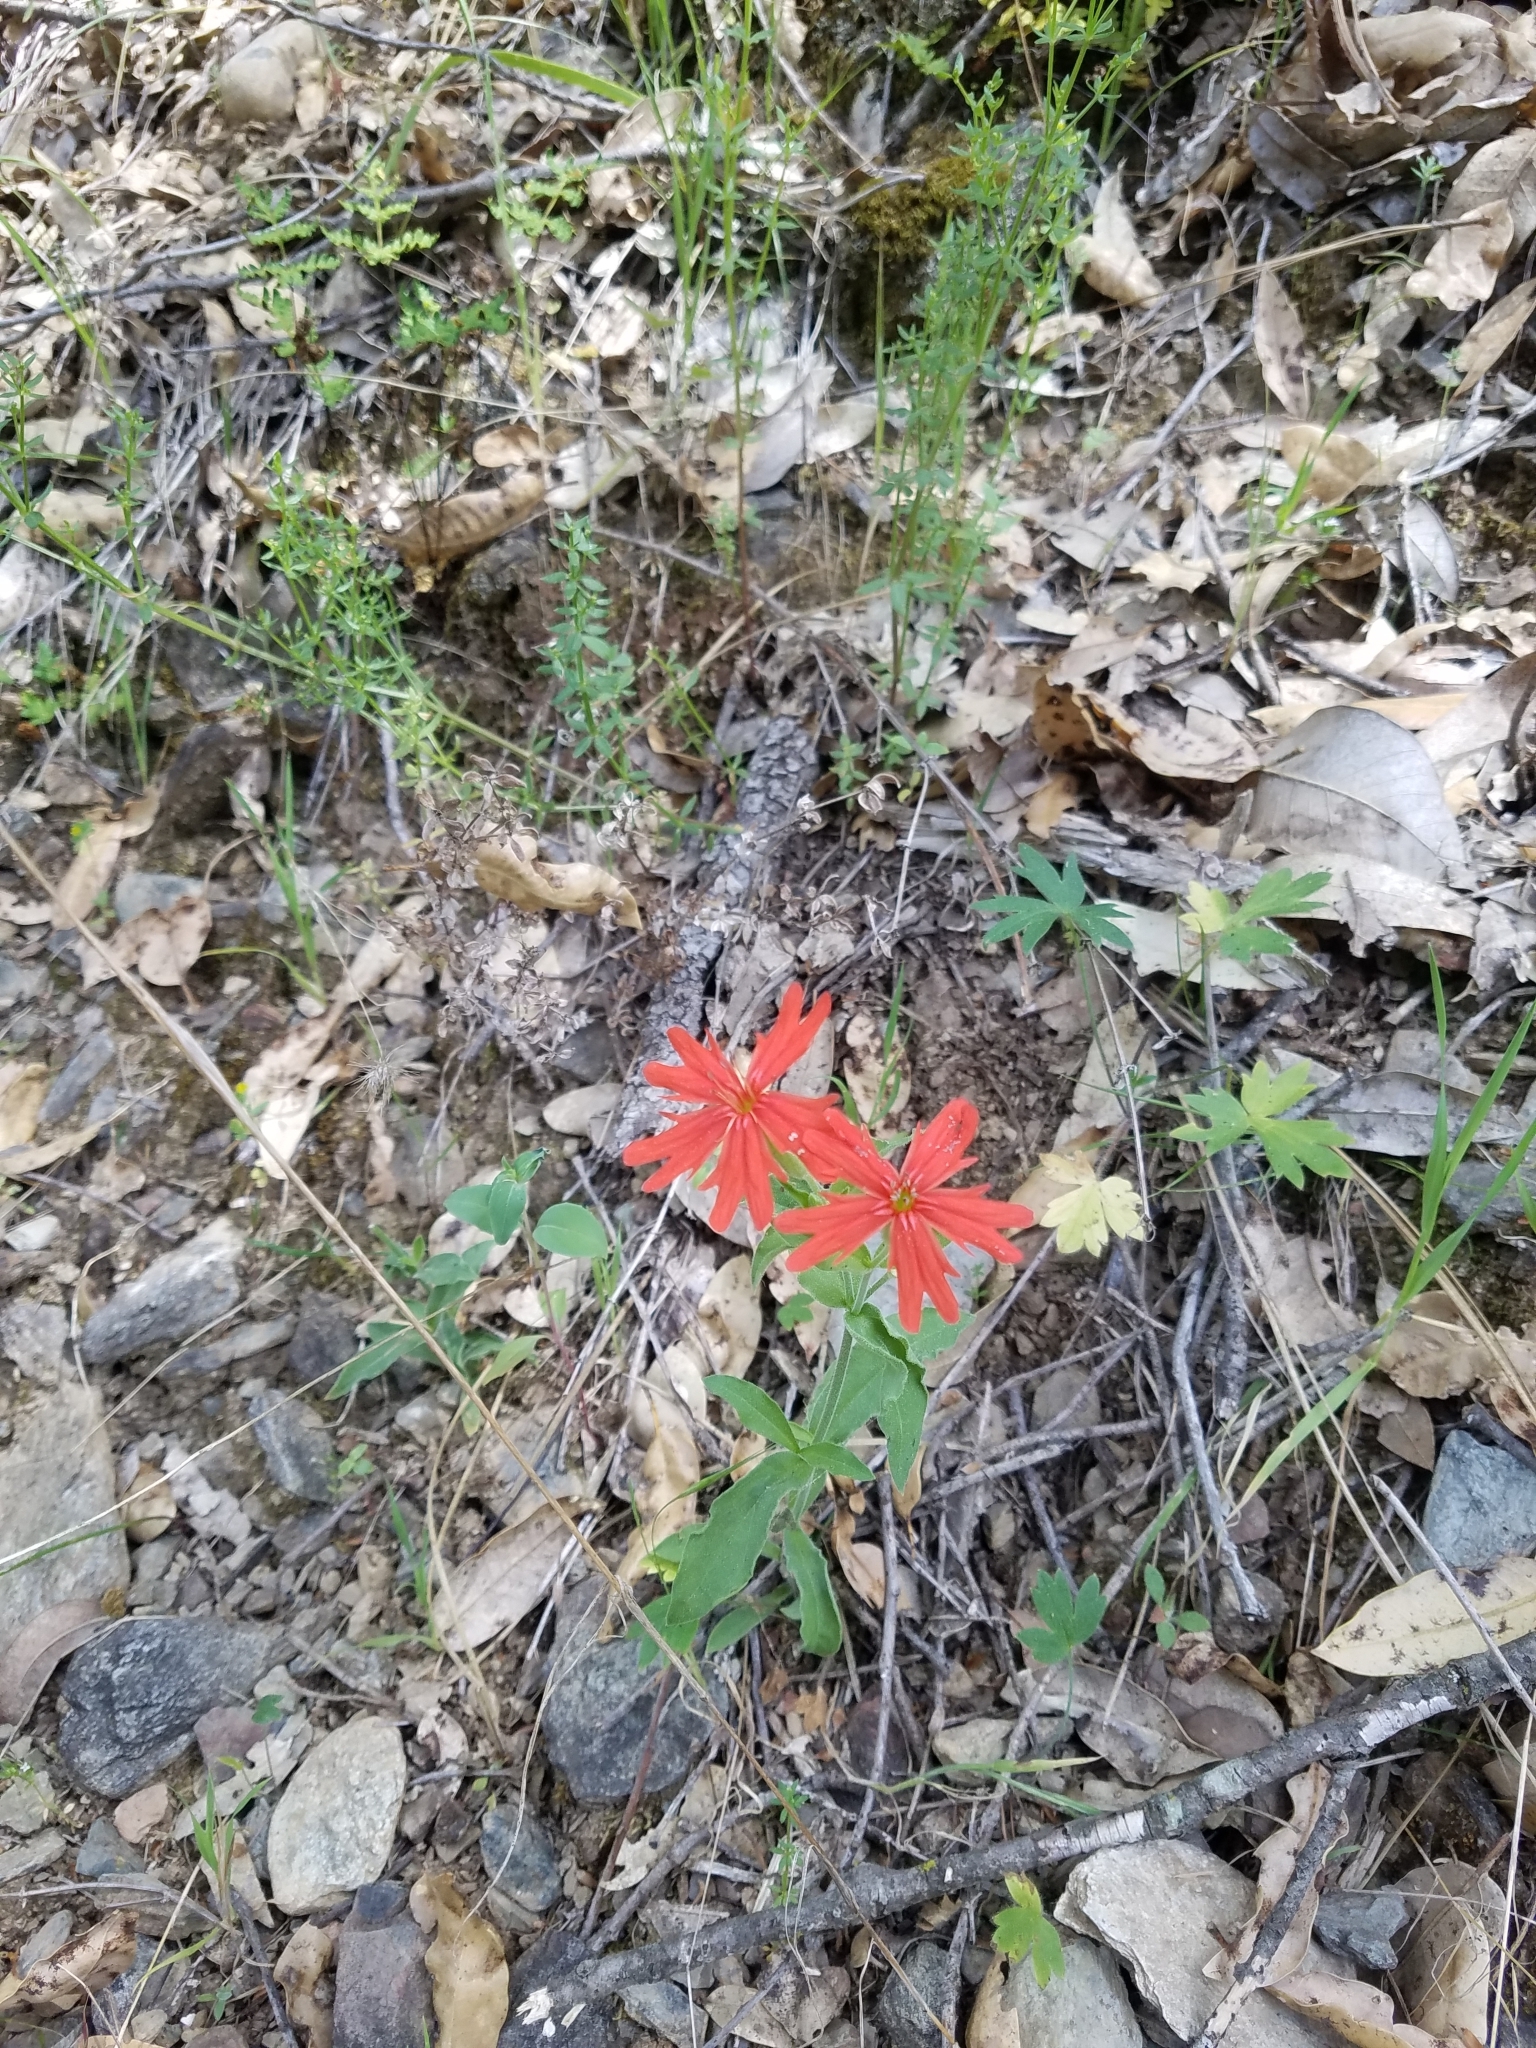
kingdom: Plantae
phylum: Tracheophyta
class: Magnoliopsida
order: Caryophyllales
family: Caryophyllaceae
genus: Silene
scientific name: Silene laciniata
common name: Indian-pink
